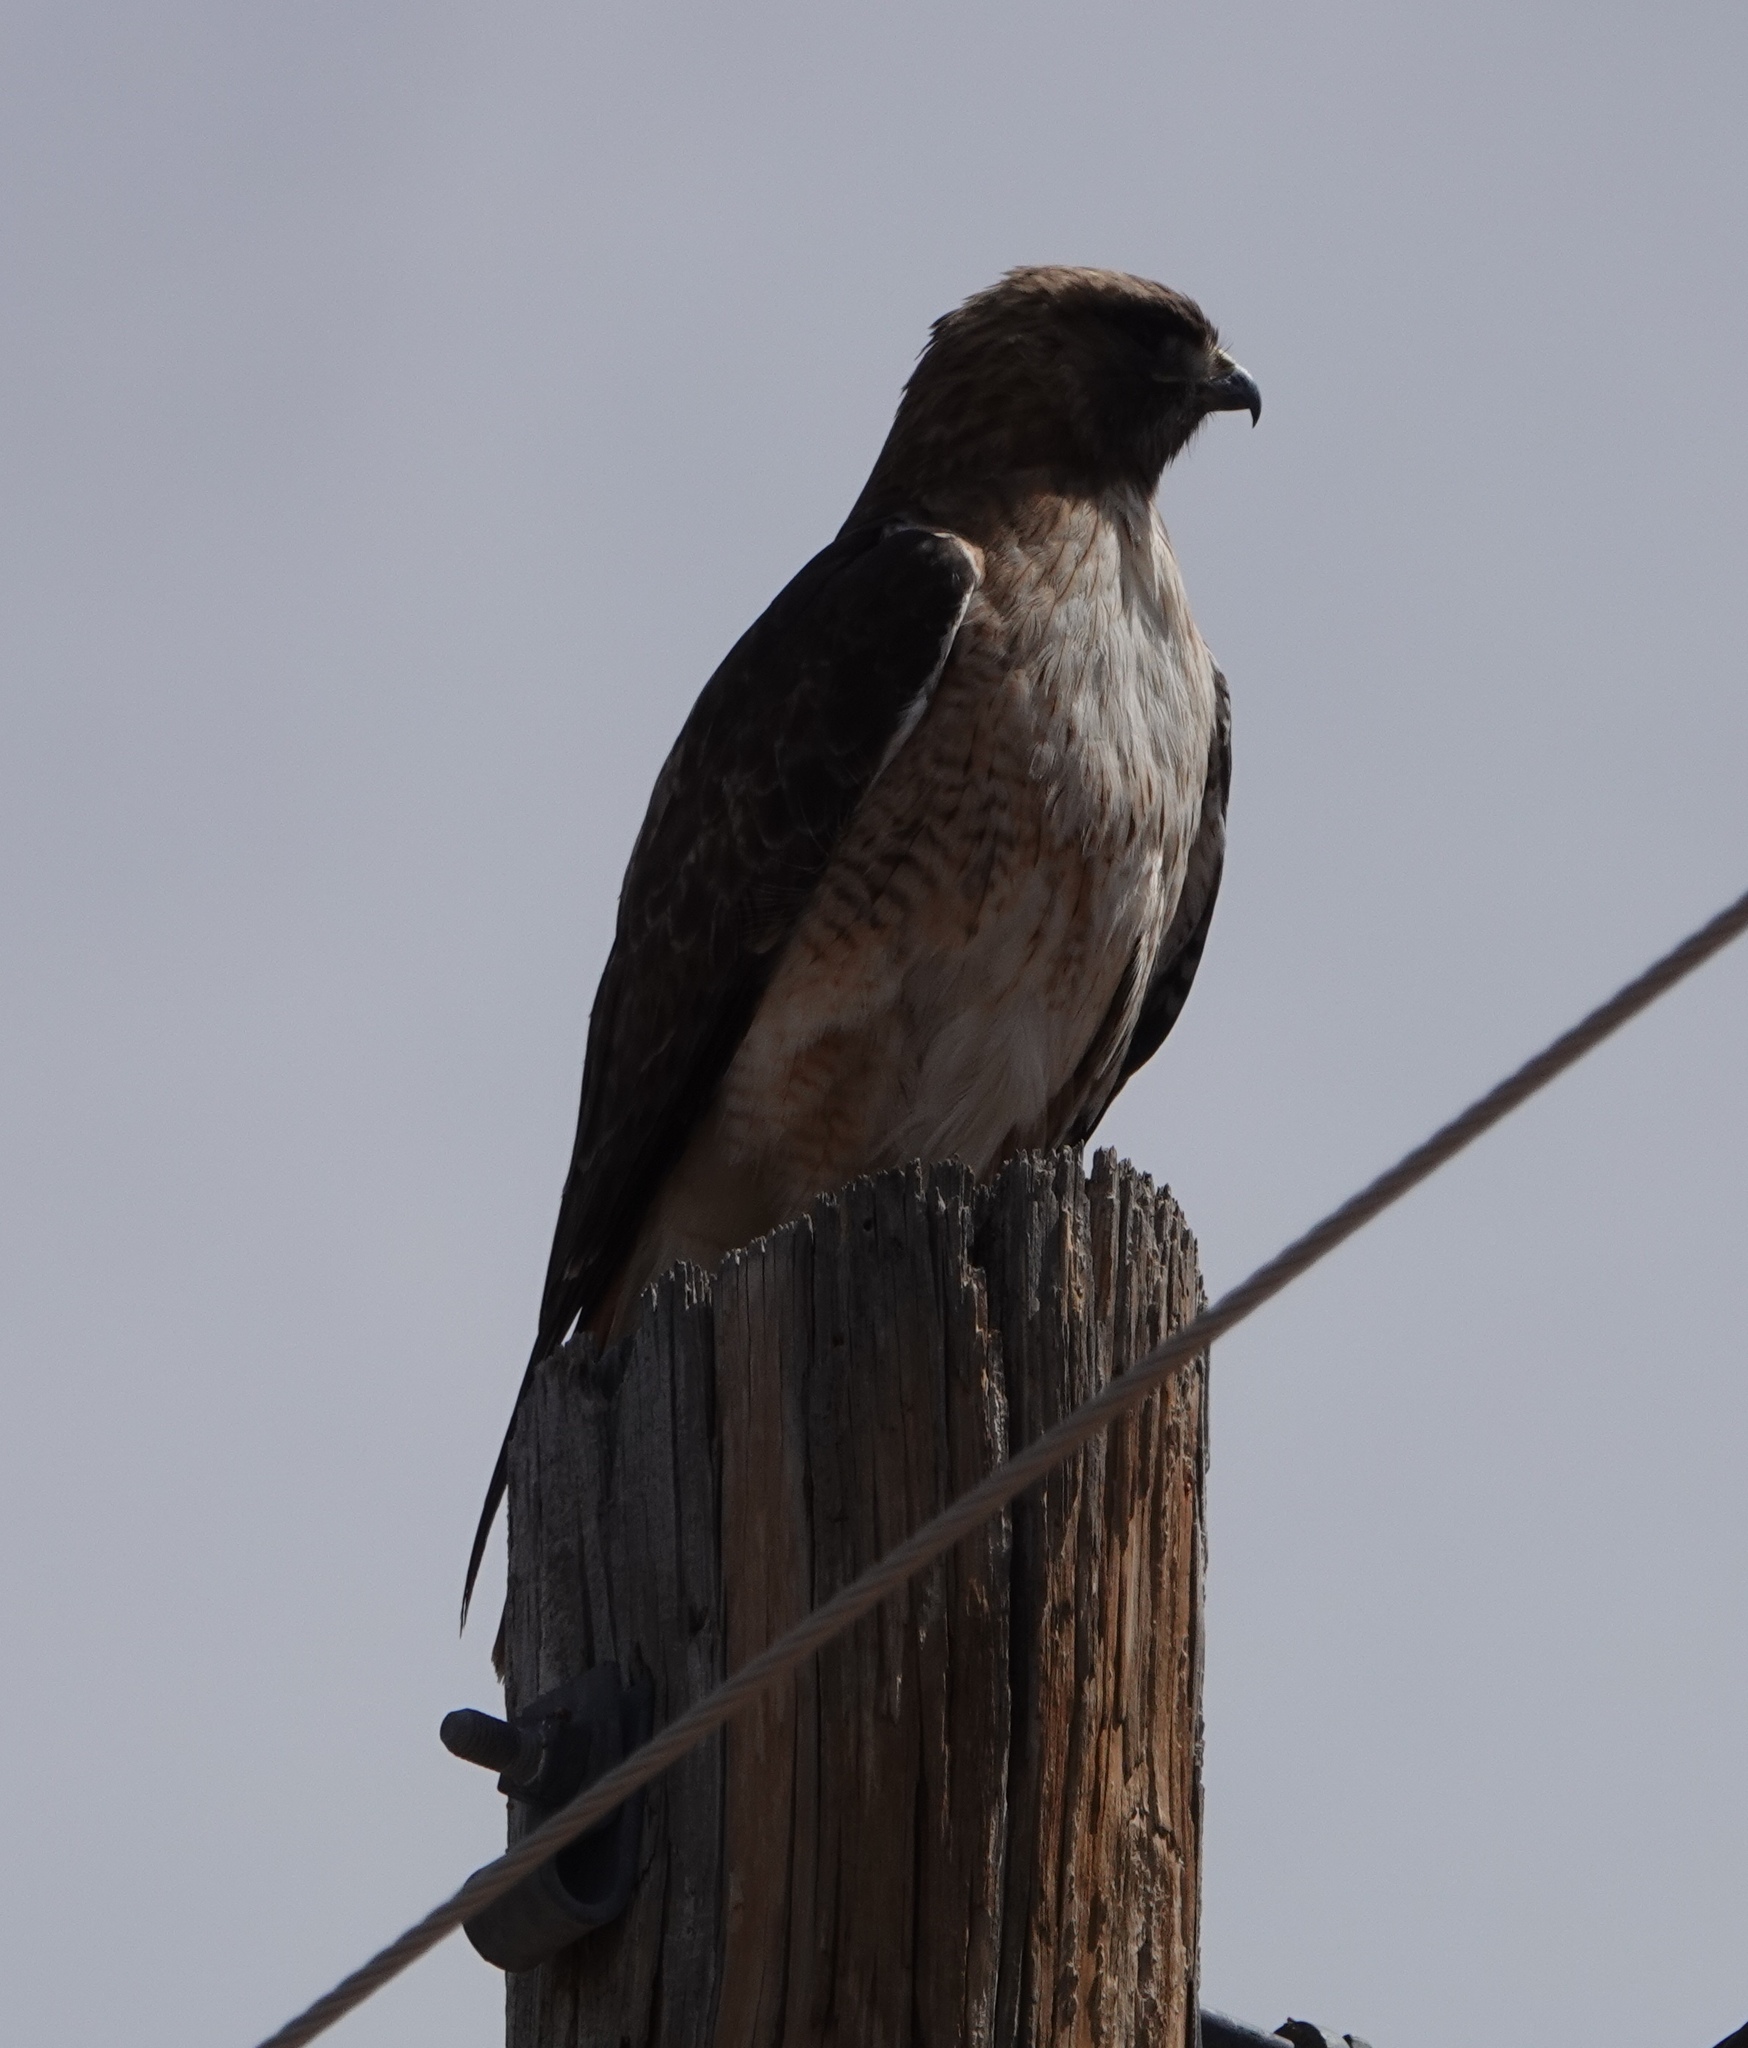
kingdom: Animalia
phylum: Chordata
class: Aves
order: Accipitriformes
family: Accipitridae
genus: Buteo
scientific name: Buteo jamaicensis
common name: Red-tailed hawk
